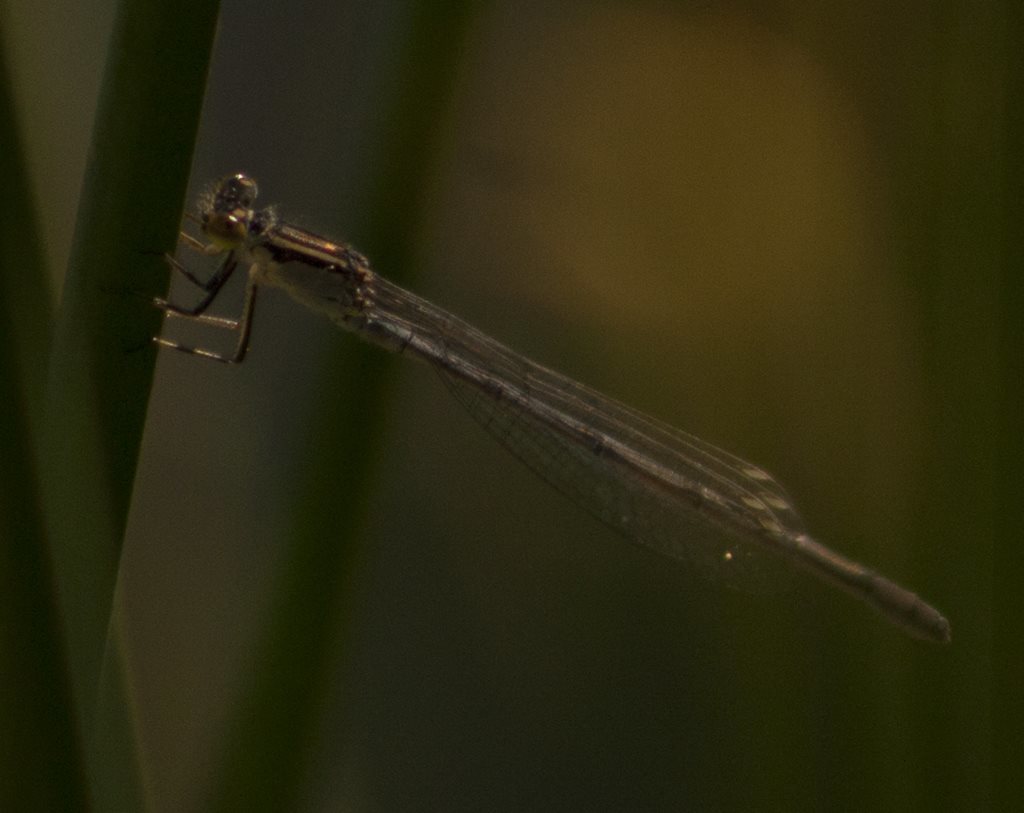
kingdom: Animalia
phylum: Arthropoda
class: Insecta
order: Odonata
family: Coenagrionidae
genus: Ischnura
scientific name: Ischnura heterosticta
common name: Common bluetail
